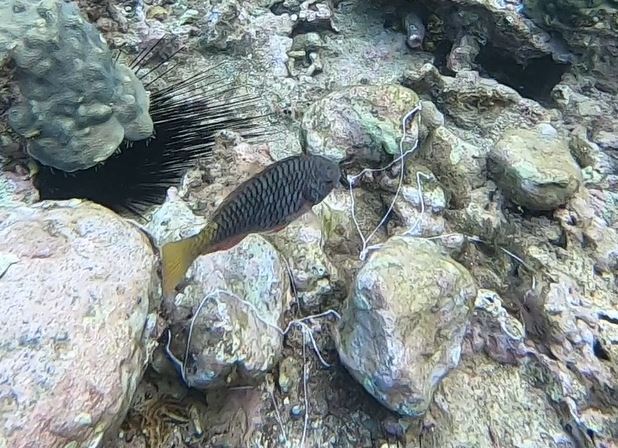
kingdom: Animalia
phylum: Chordata
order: Perciformes
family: Scaridae
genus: Sparisoma
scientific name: Sparisoma rubripinne
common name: Redfin parrotfish
